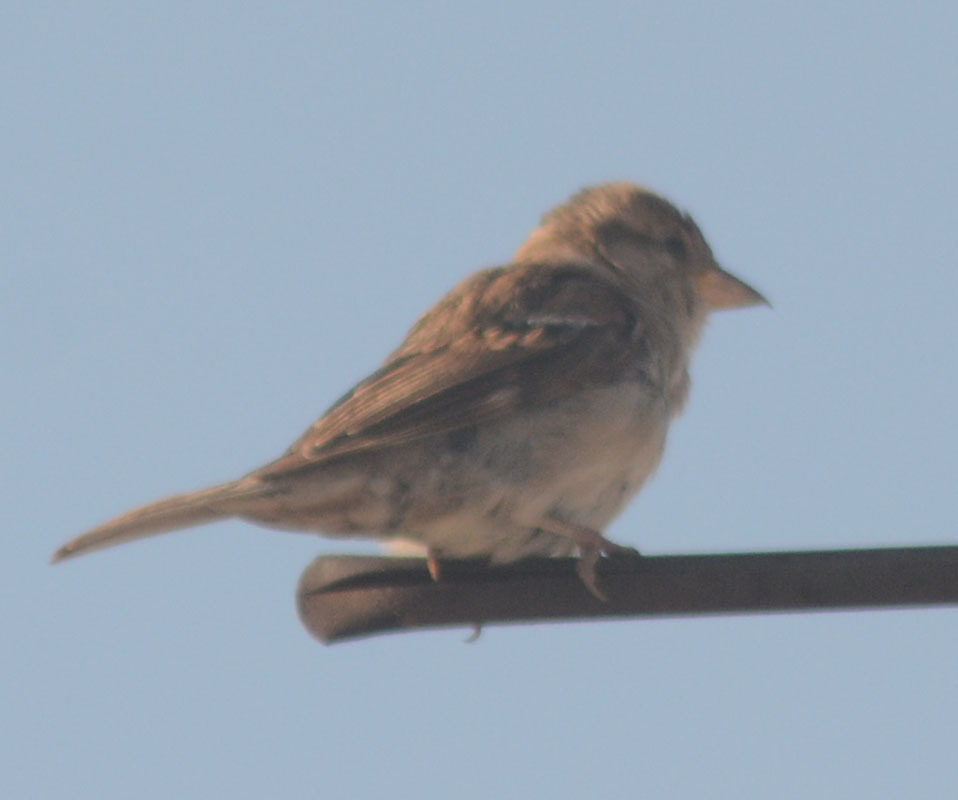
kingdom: Animalia
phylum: Chordata
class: Aves
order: Passeriformes
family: Passeridae
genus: Passer
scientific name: Passer domesticus
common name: House sparrow
